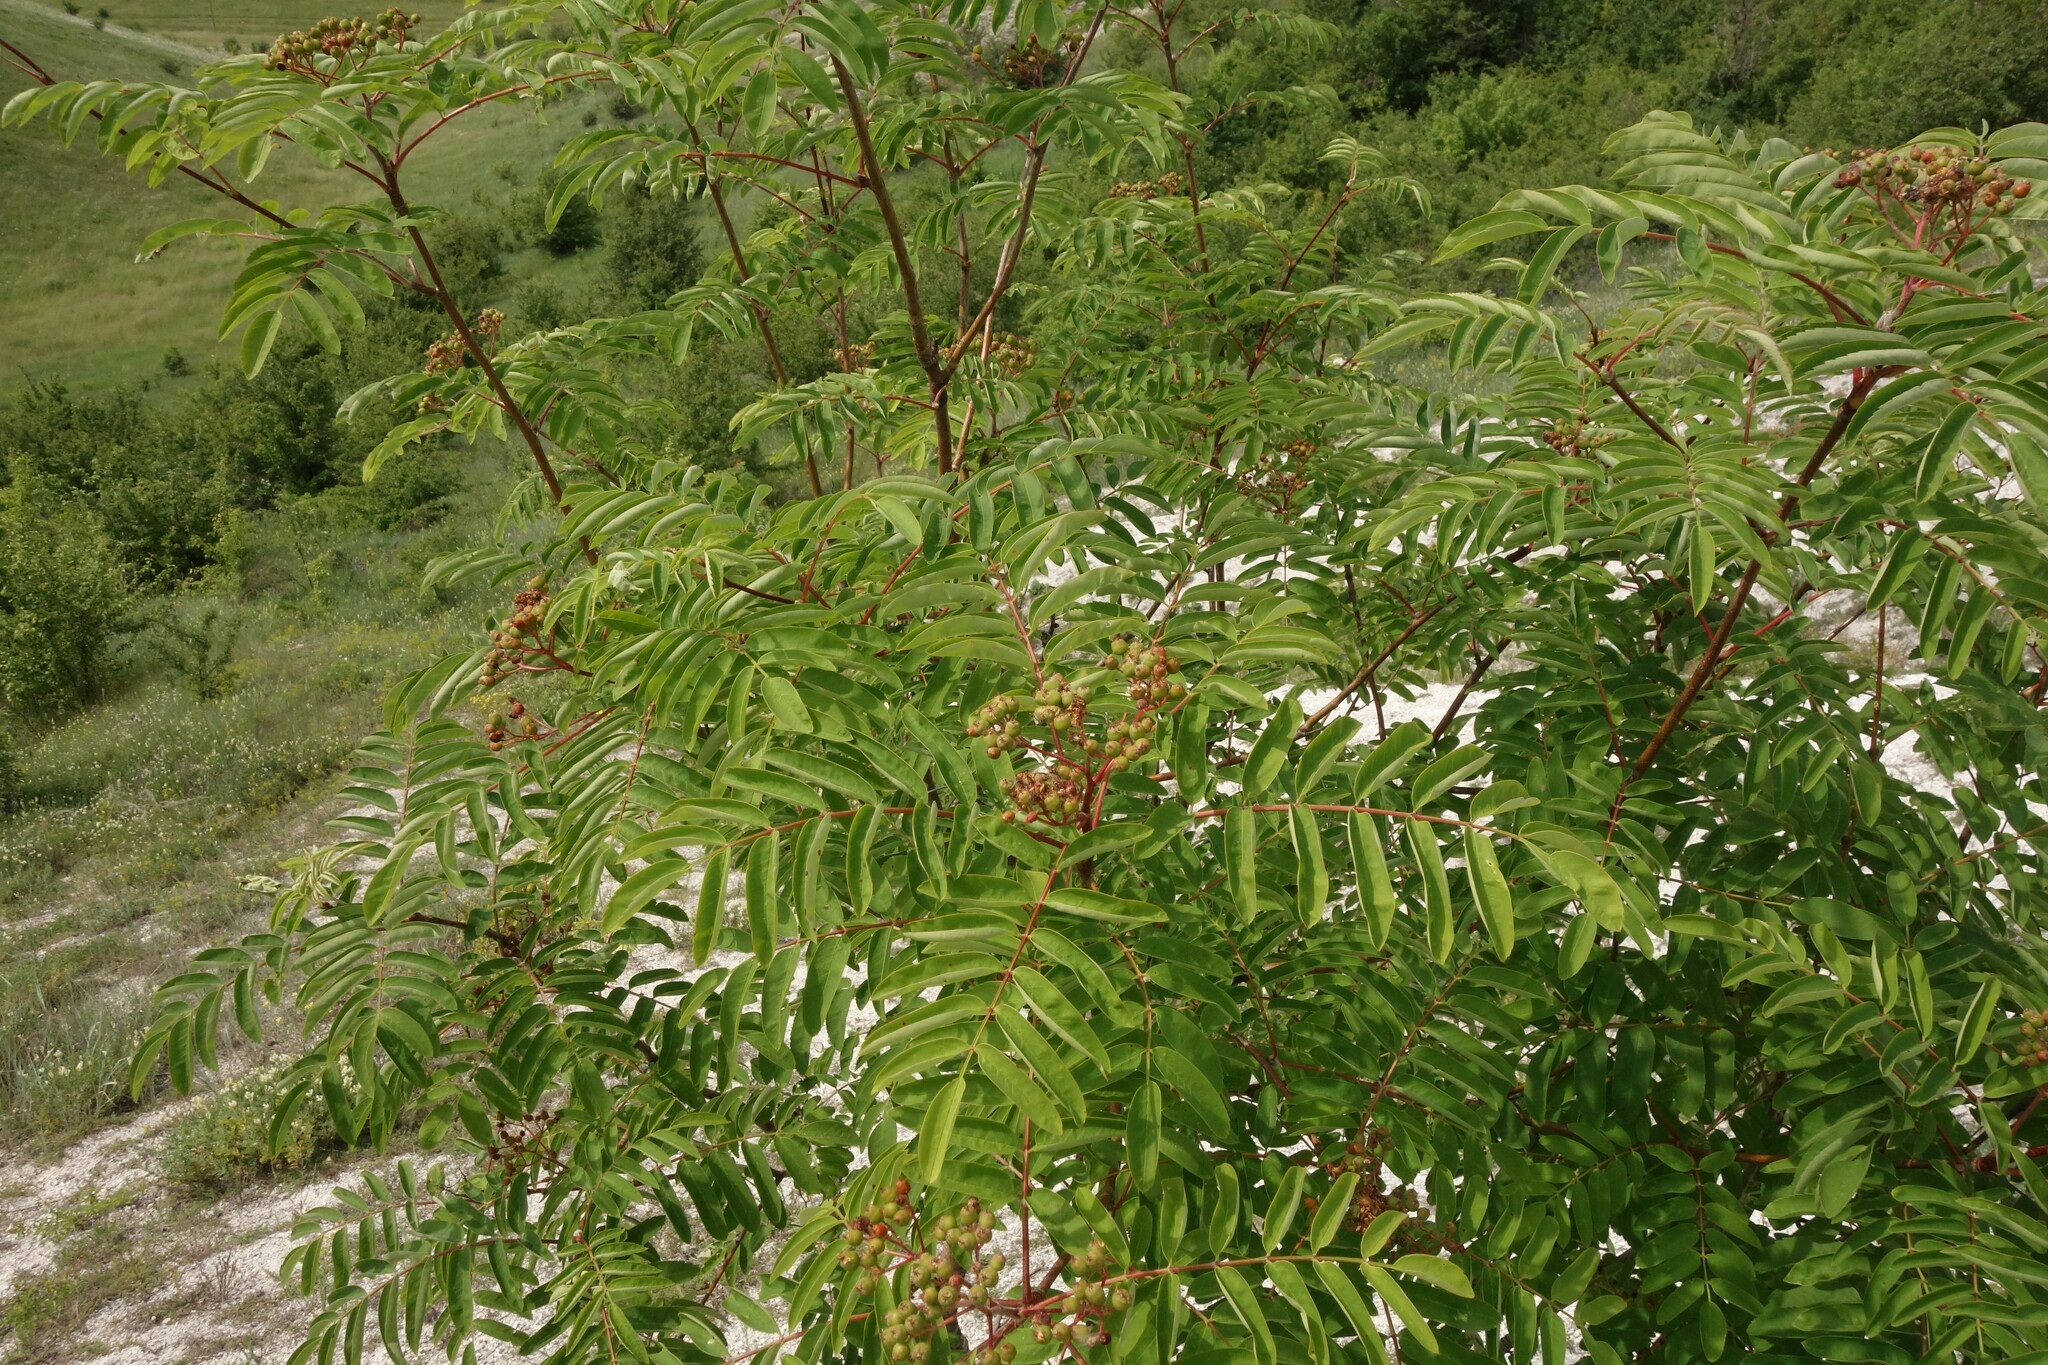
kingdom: Plantae
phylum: Tracheophyta
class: Magnoliopsida
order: Rosales
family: Rosaceae
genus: Sorbus
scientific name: Sorbus aucuparia
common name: Rowan
